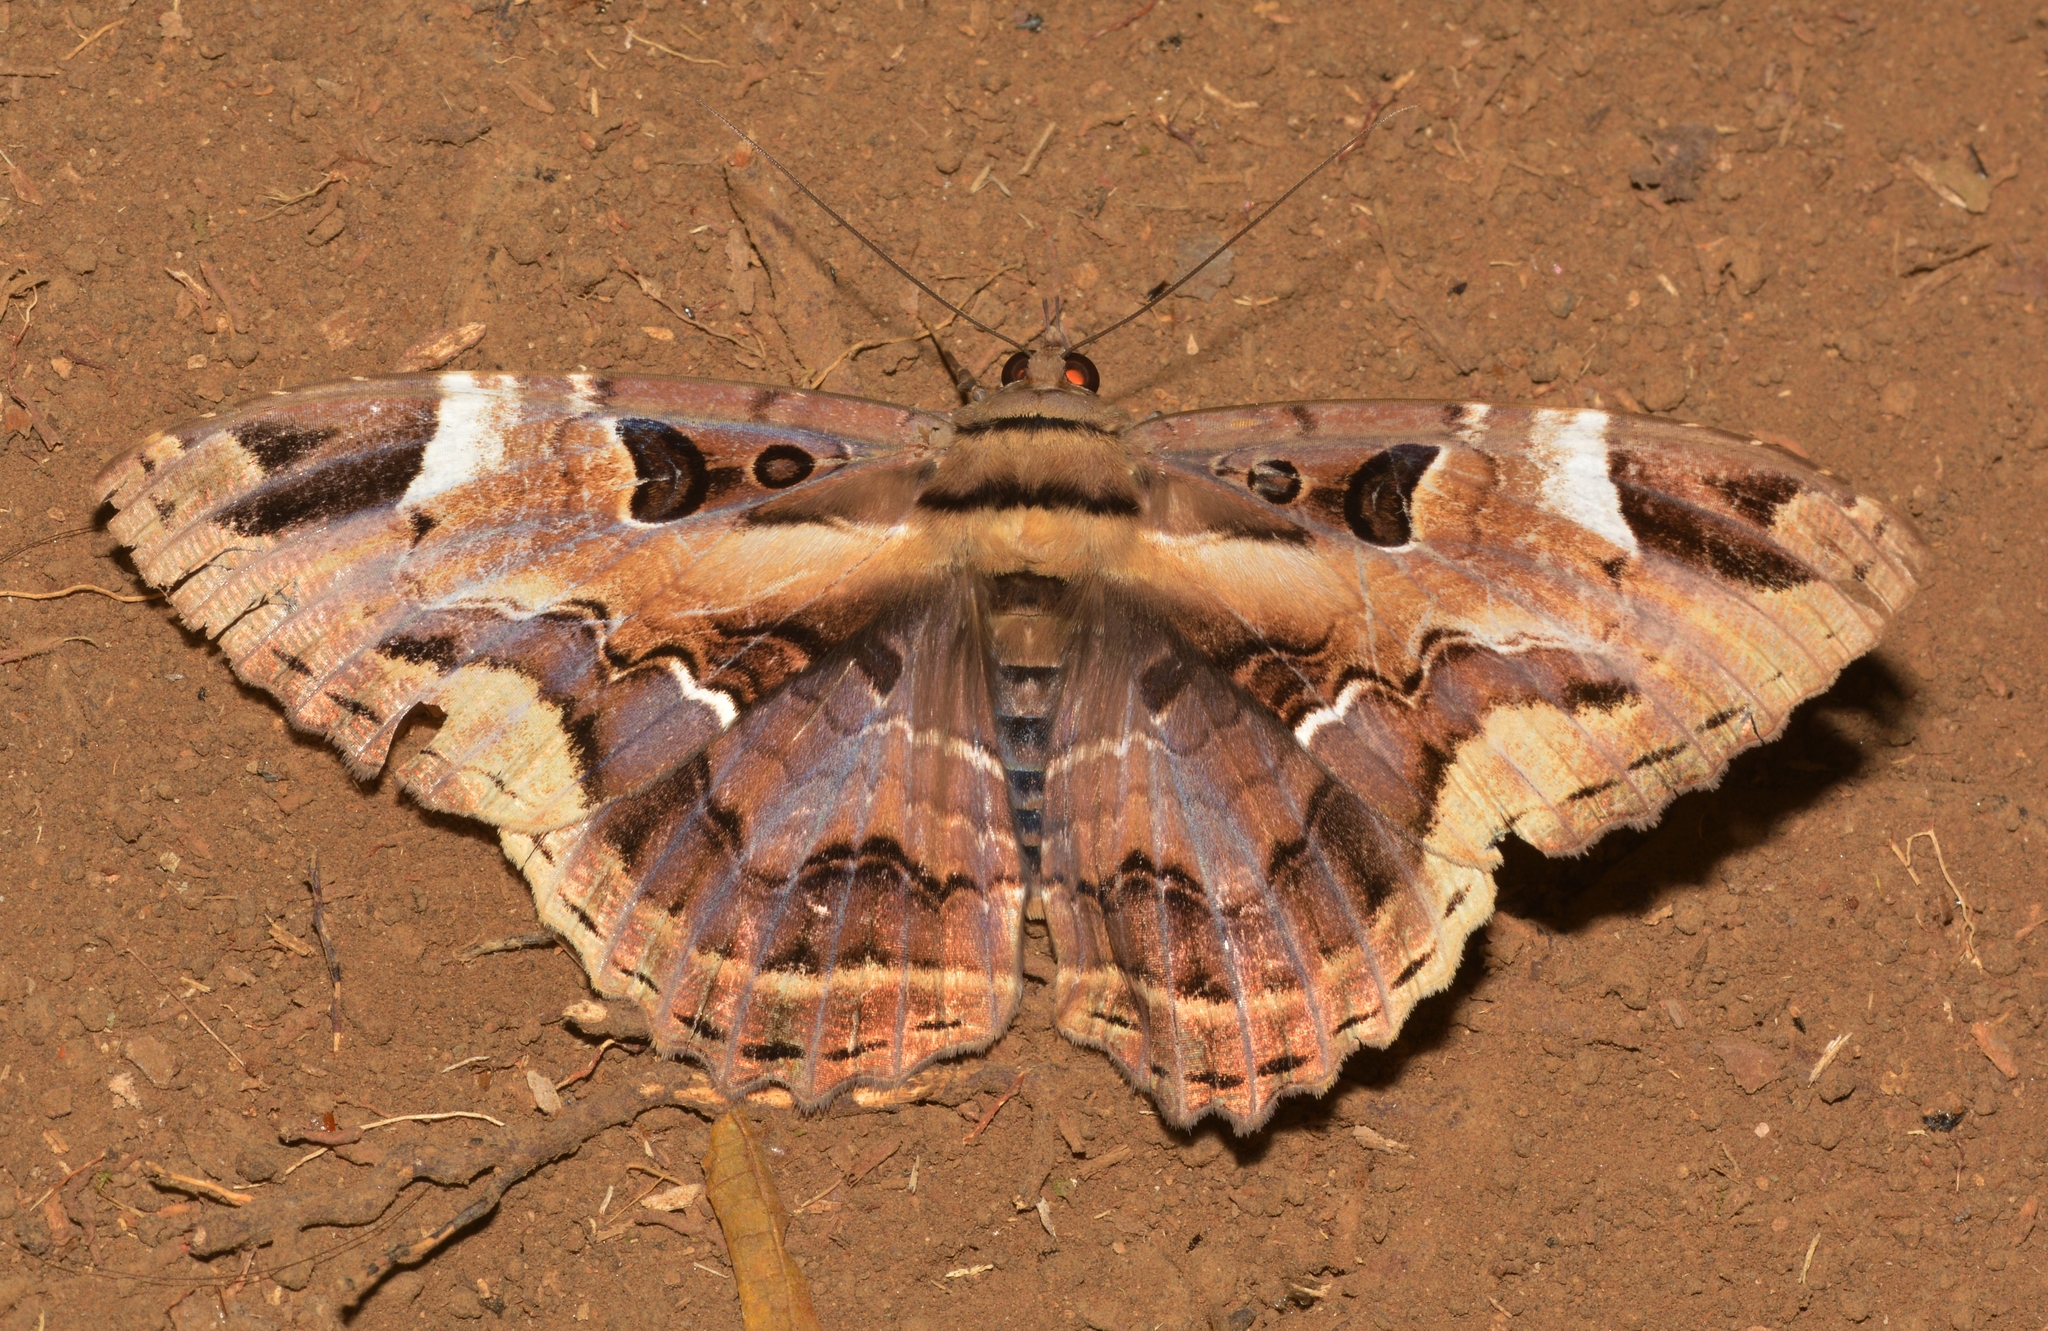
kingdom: Animalia
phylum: Arthropoda
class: Insecta
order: Lepidoptera
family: Erebidae
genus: Feigeria
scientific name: Feigeria herilia
